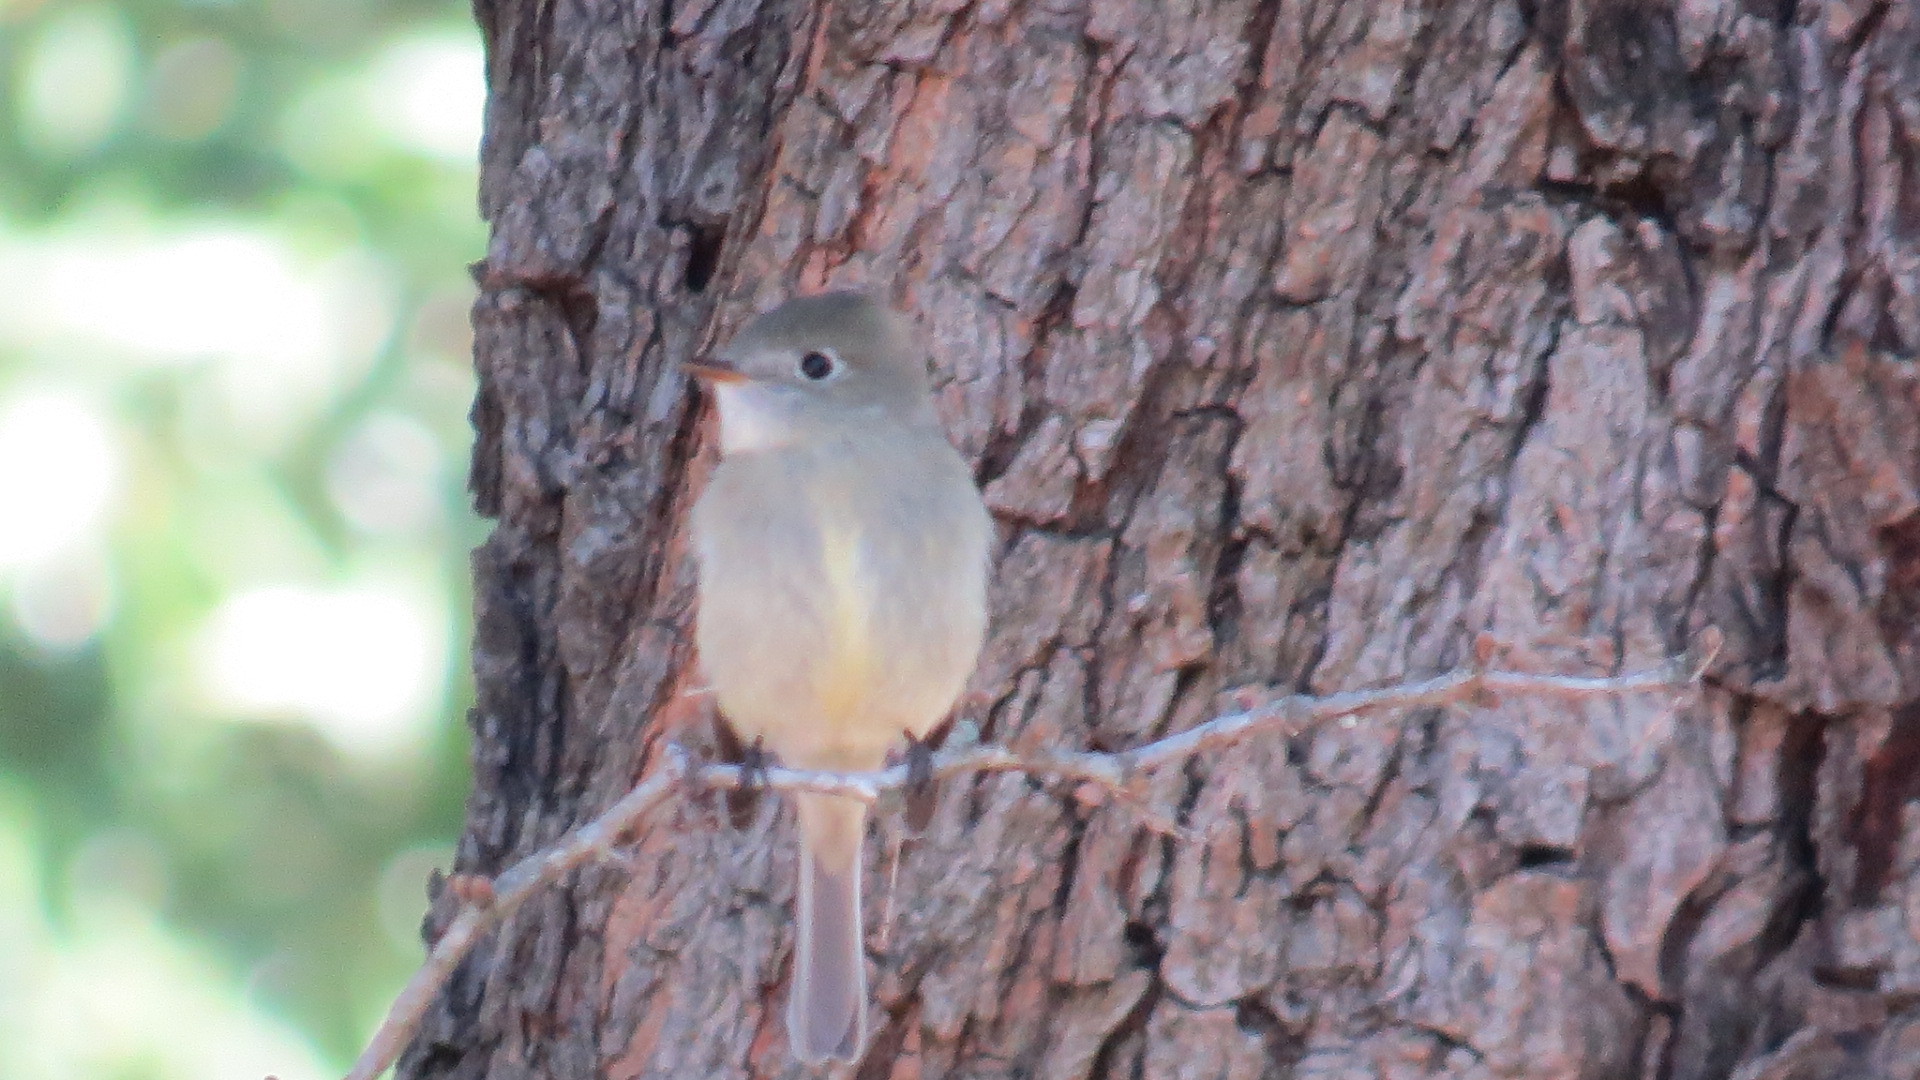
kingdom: Animalia
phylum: Chordata
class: Aves
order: Passeriformes
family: Tyrannidae
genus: Empidonax
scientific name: Empidonax hammondii
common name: Hammond's flycatcher
